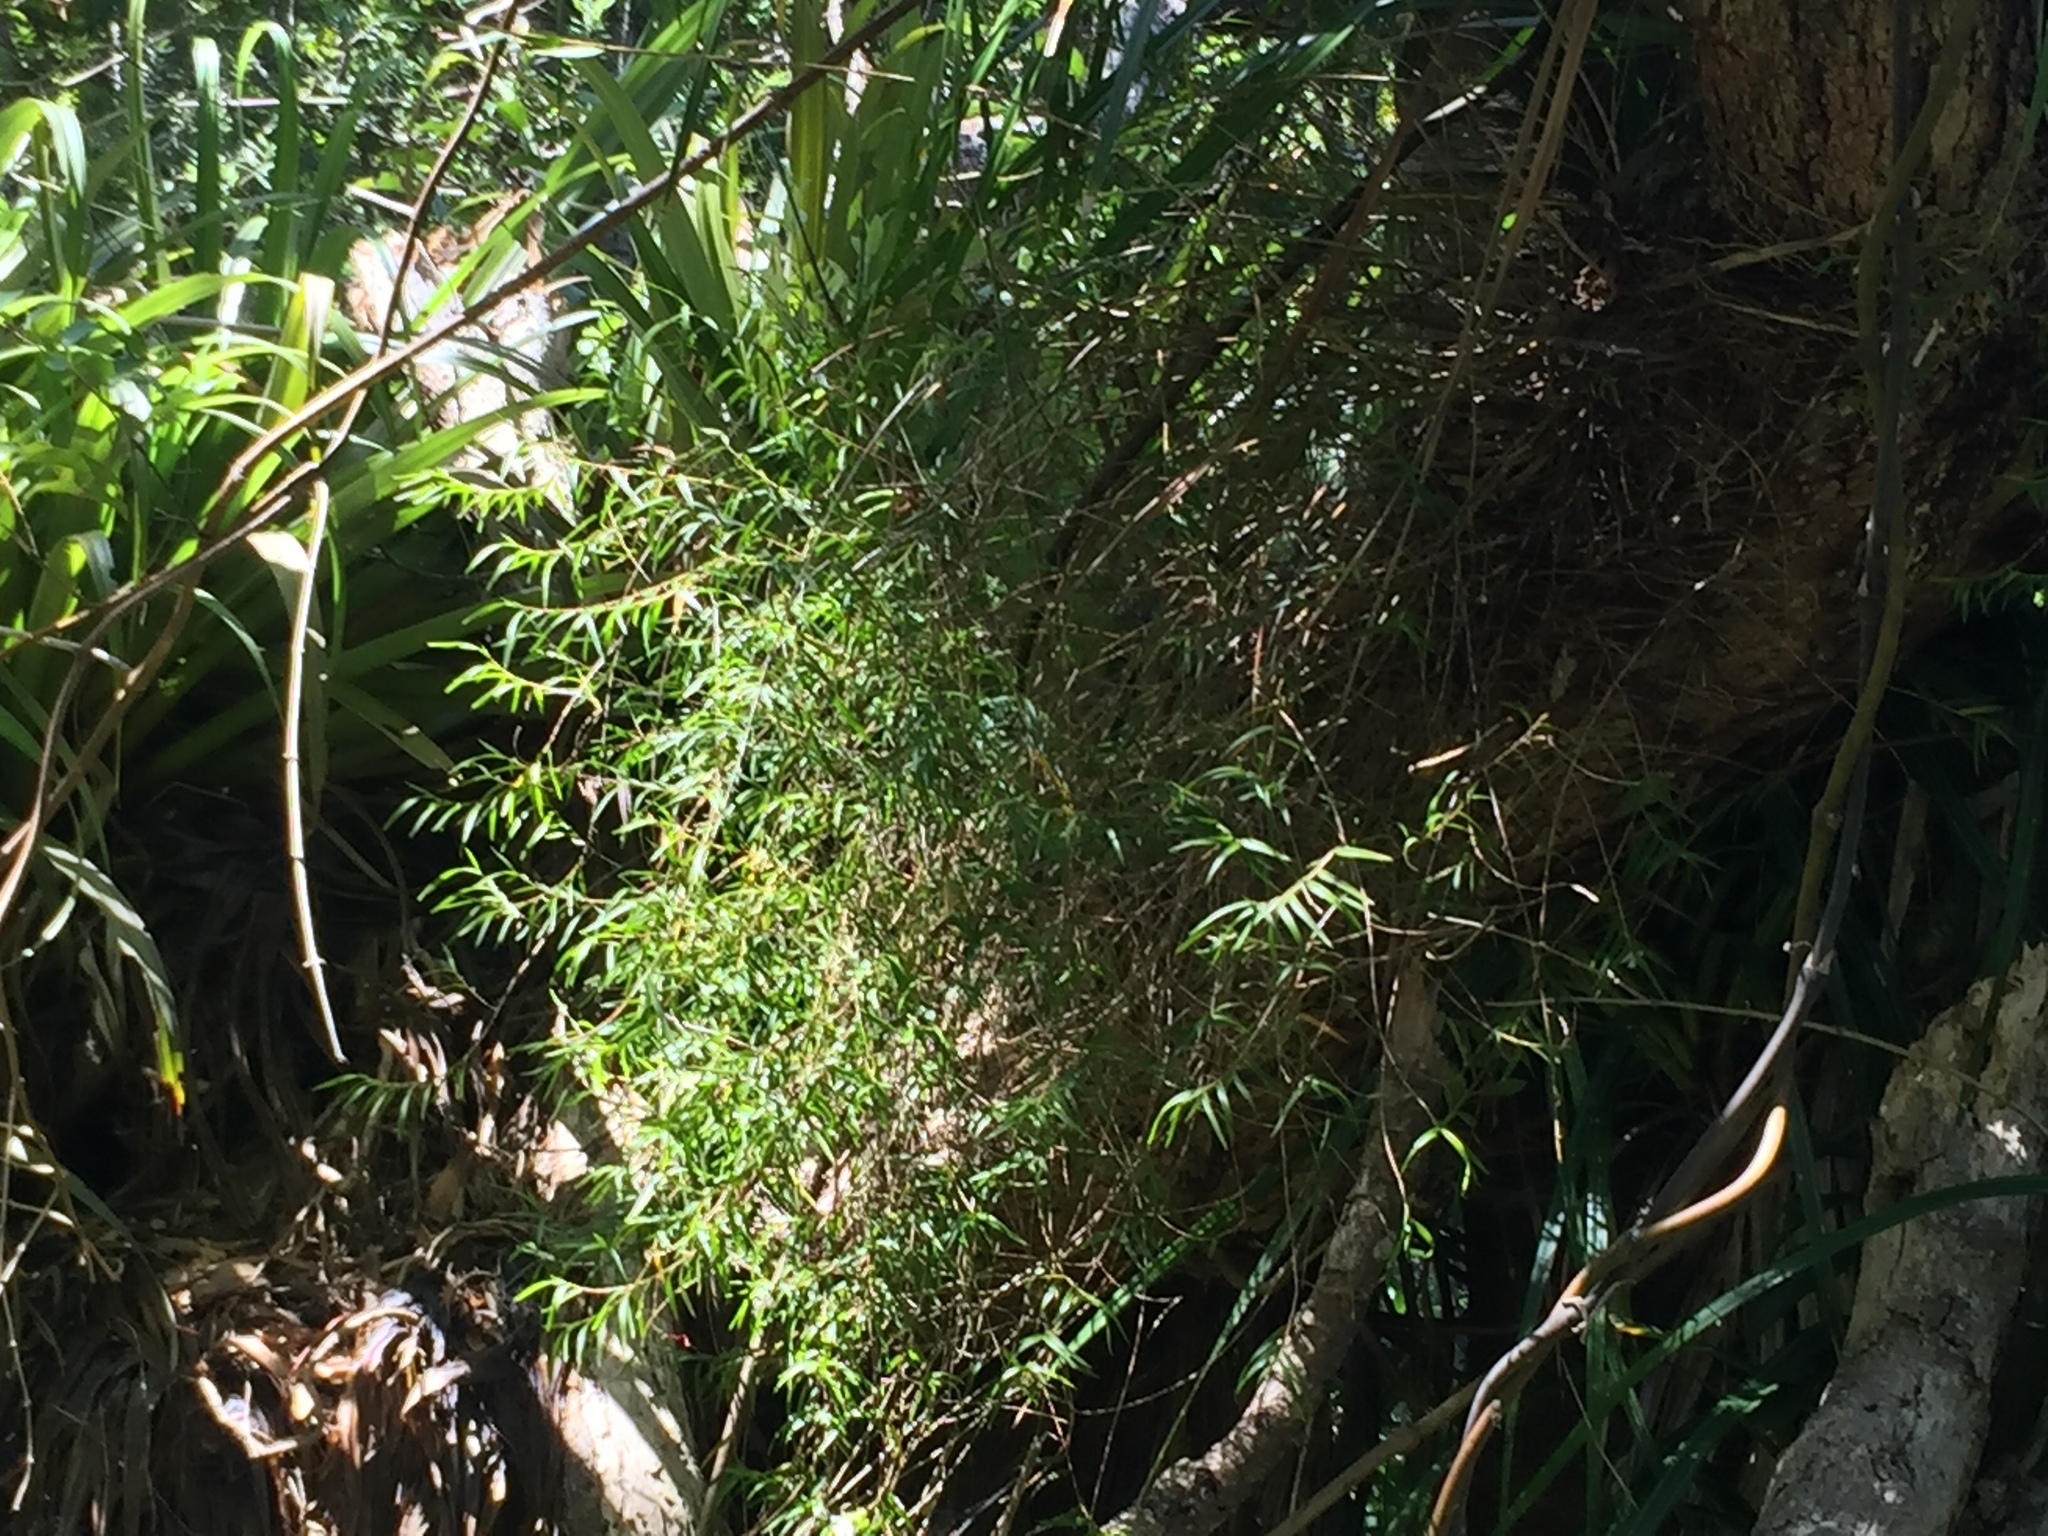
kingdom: Plantae
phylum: Tracheophyta
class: Liliopsida
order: Asparagales
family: Orchidaceae
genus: Dendrobium
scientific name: Dendrobium cunninghamii
